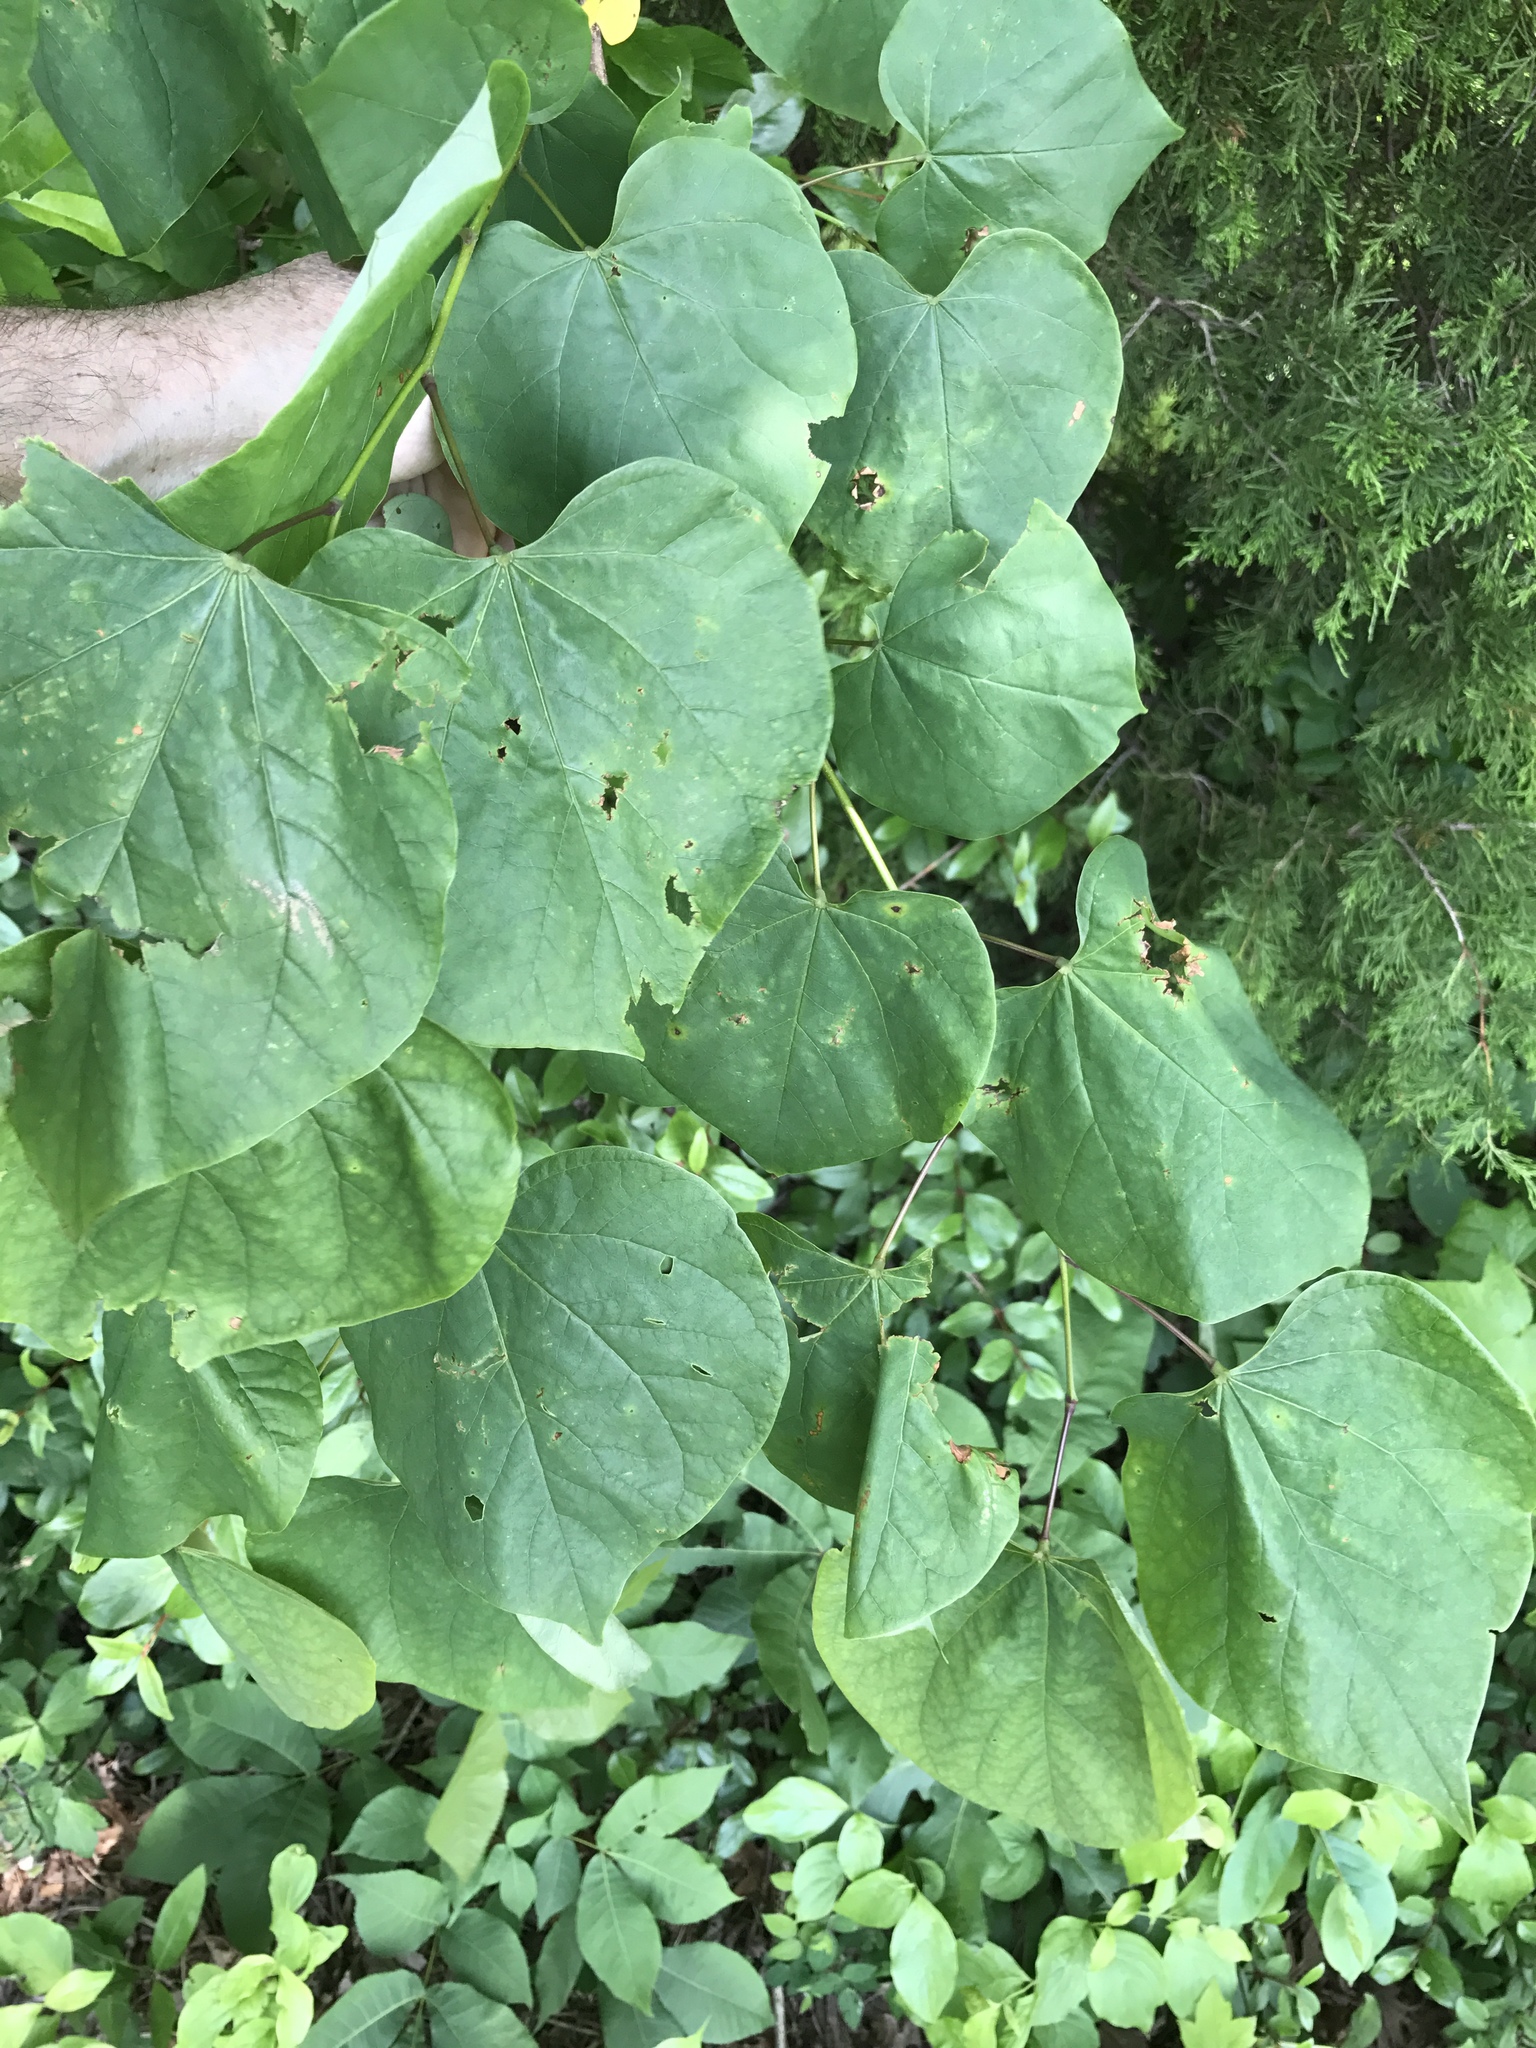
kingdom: Plantae
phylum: Tracheophyta
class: Magnoliopsida
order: Fabales
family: Fabaceae
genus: Cercis
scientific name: Cercis canadensis
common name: Eastern redbud
